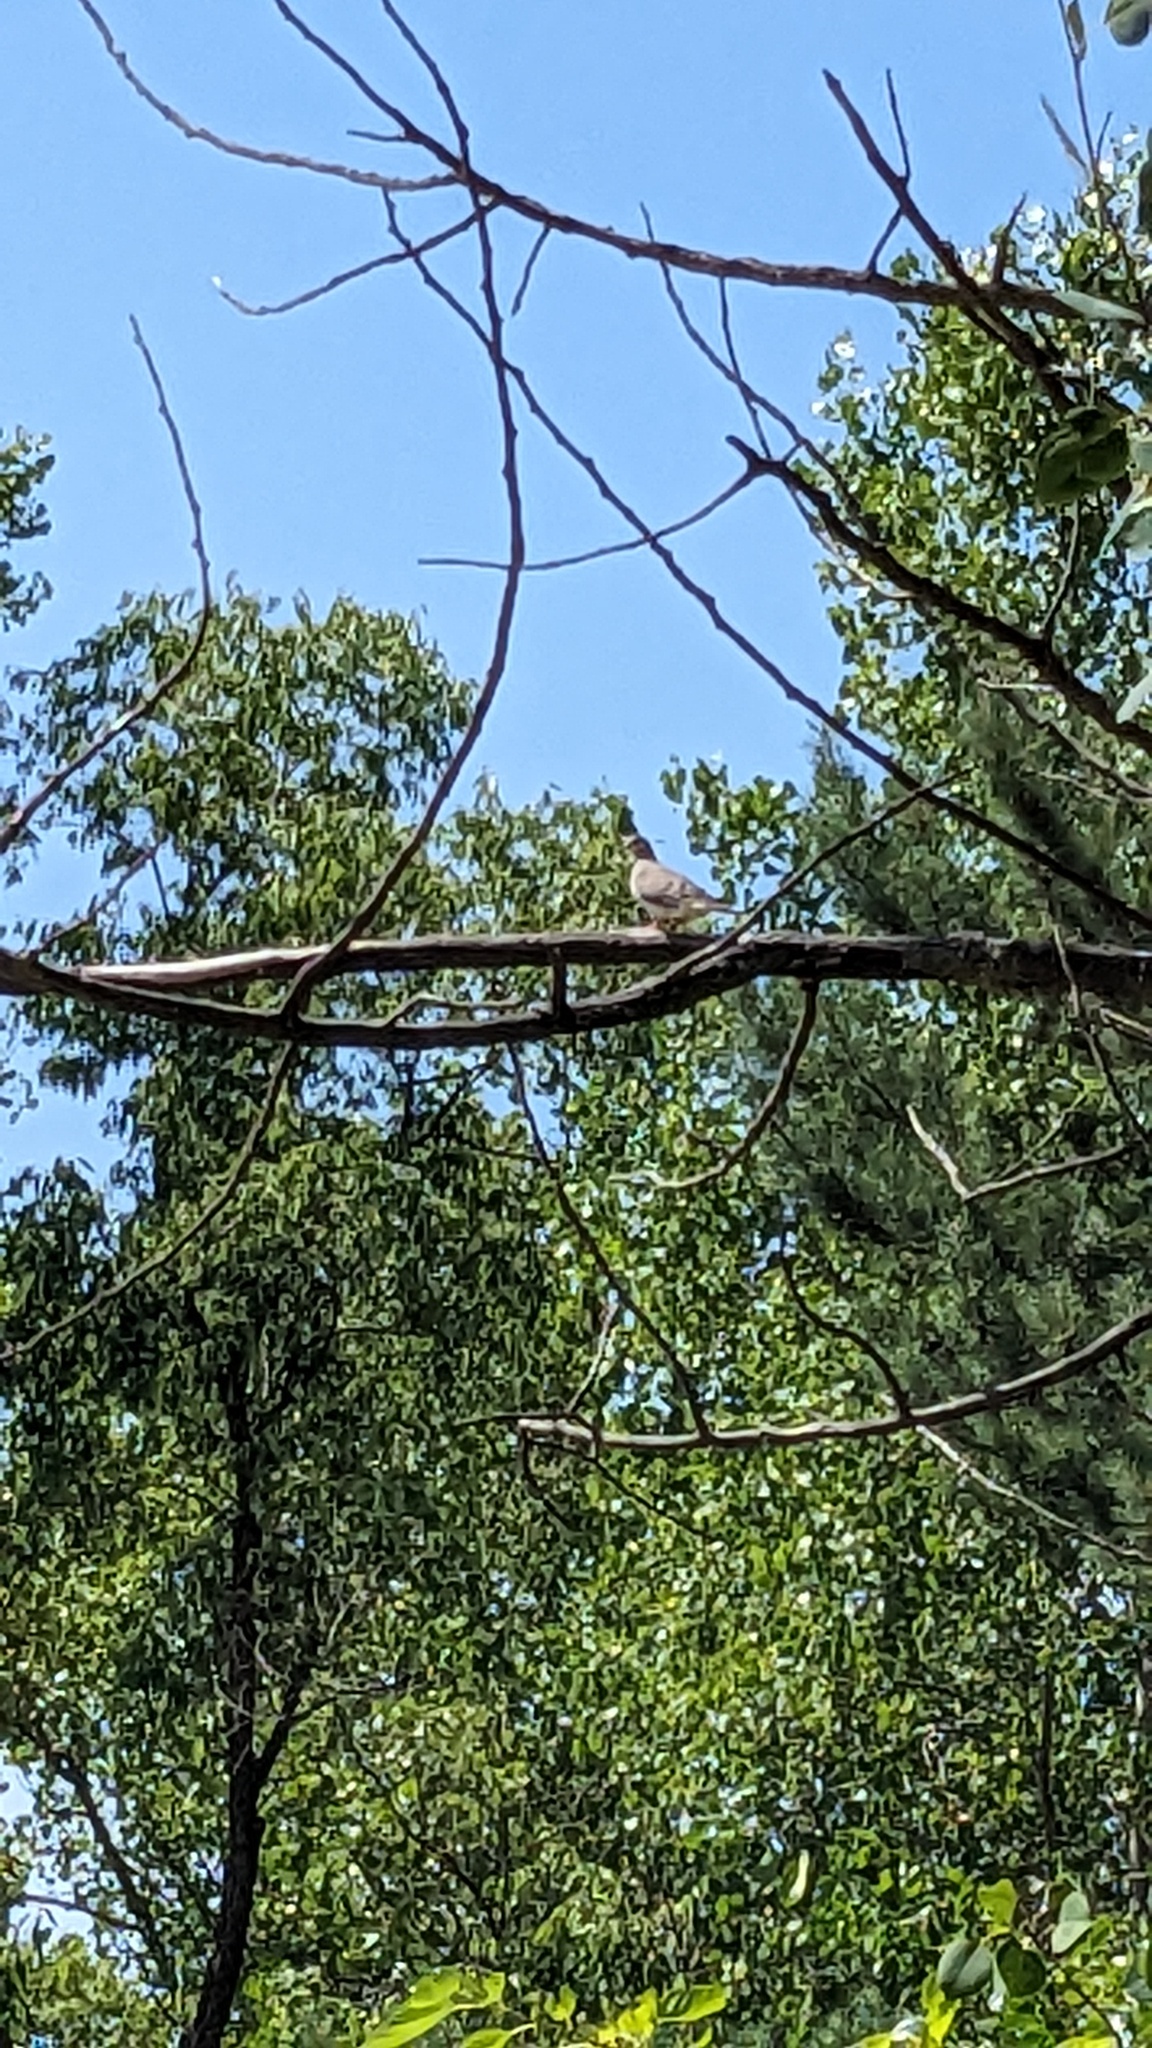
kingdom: Animalia
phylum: Chordata
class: Aves
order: Columbiformes
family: Columbidae
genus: Zenaida
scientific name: Zenaida macroura
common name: Mourning dove
